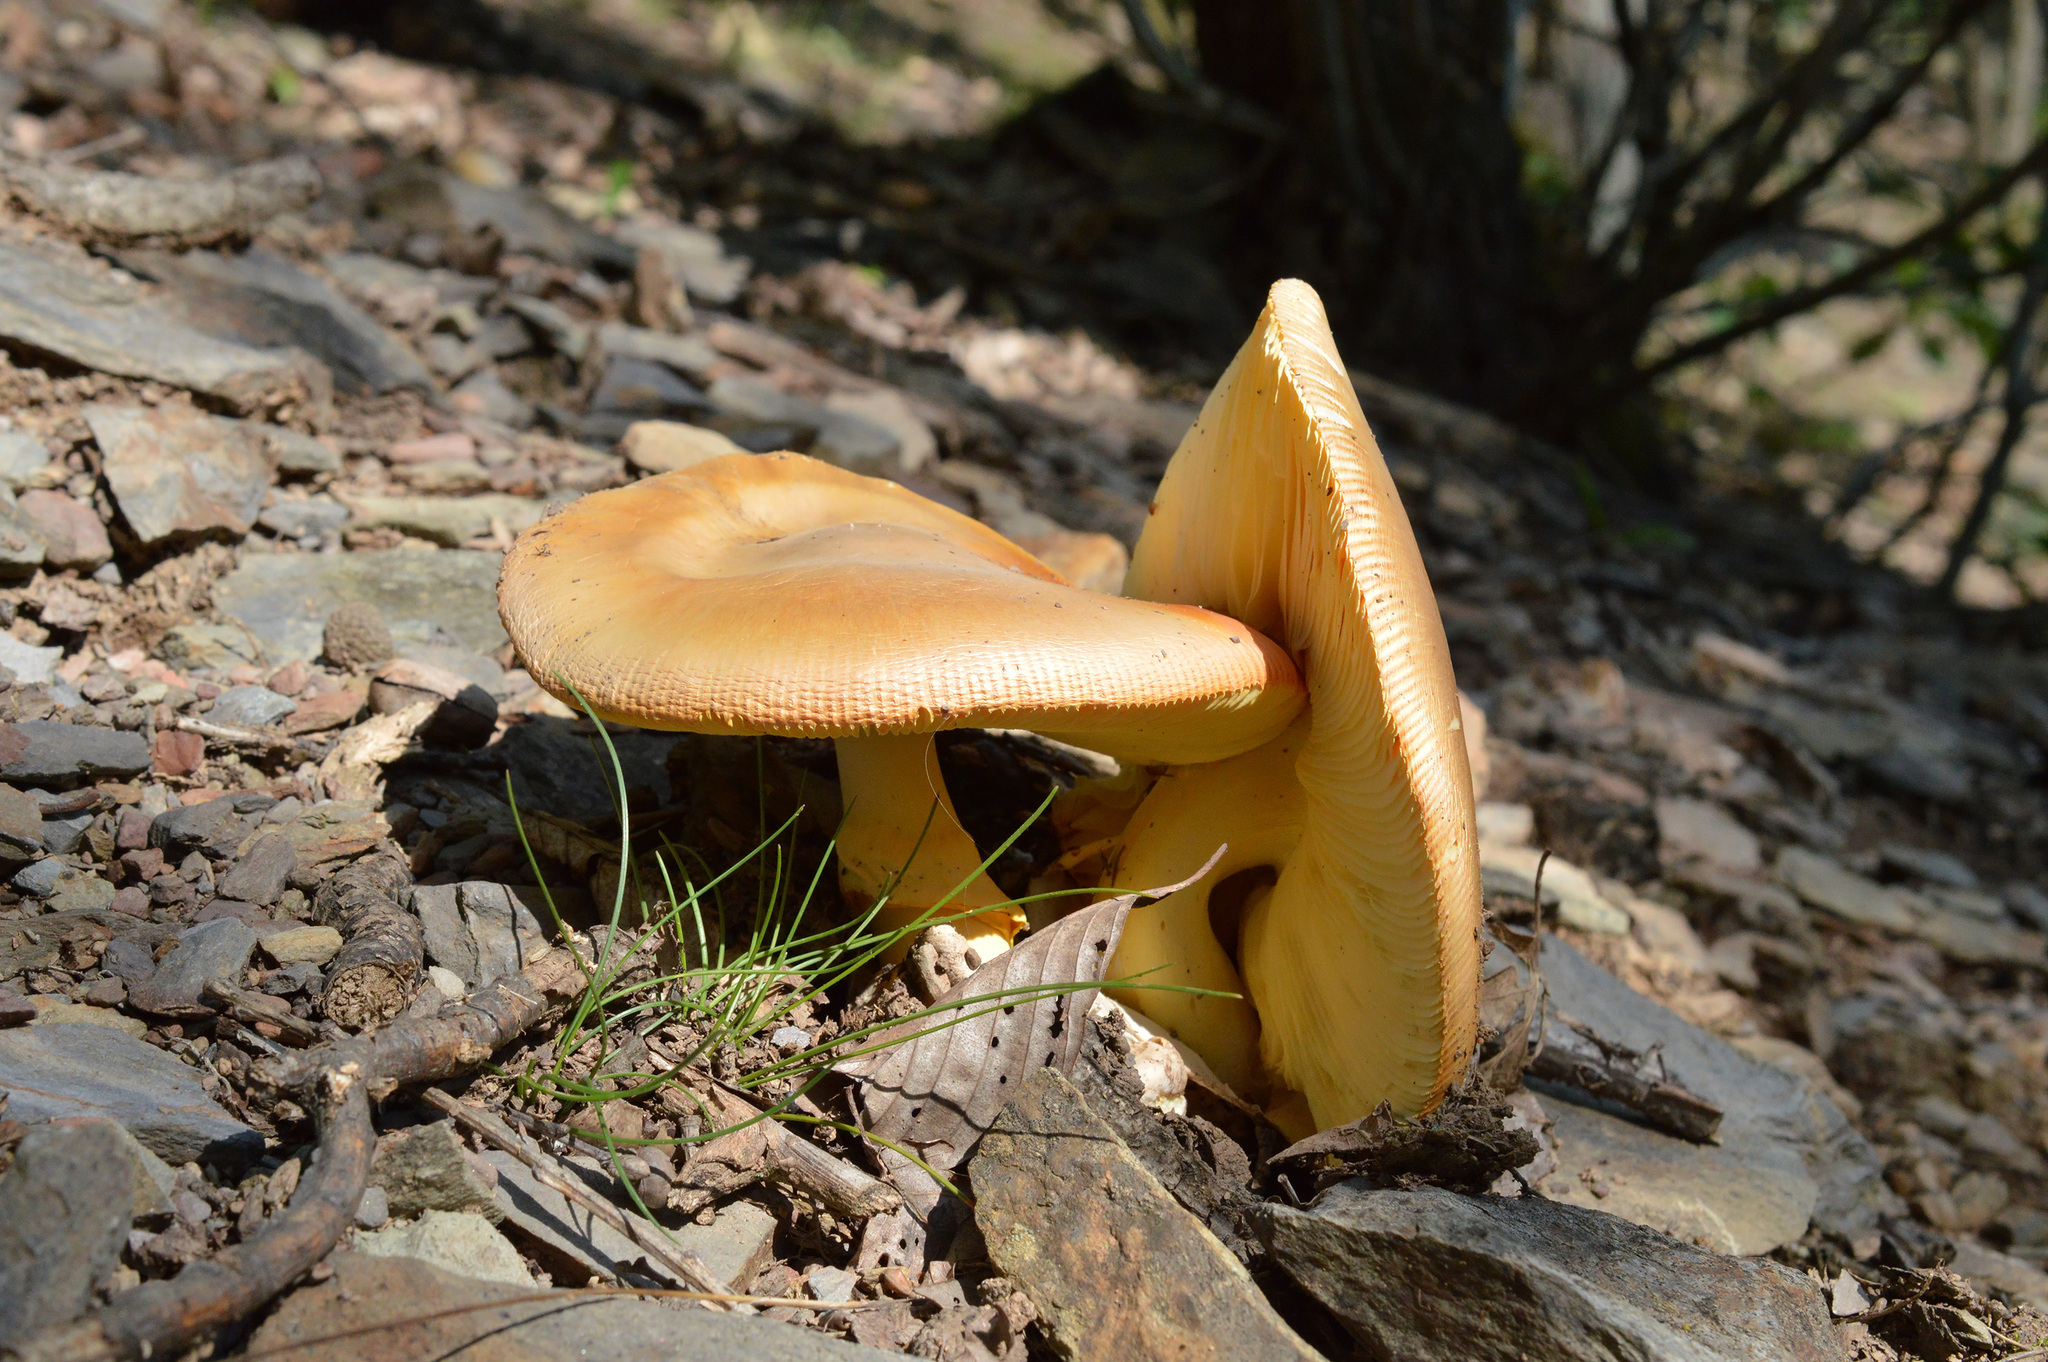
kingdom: Fungi
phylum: Basidiomycota
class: Agaricomycetes
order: Agaricales
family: Amanitaceae
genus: Amanita
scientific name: Amanita caesarea
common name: Caesar's amanita
